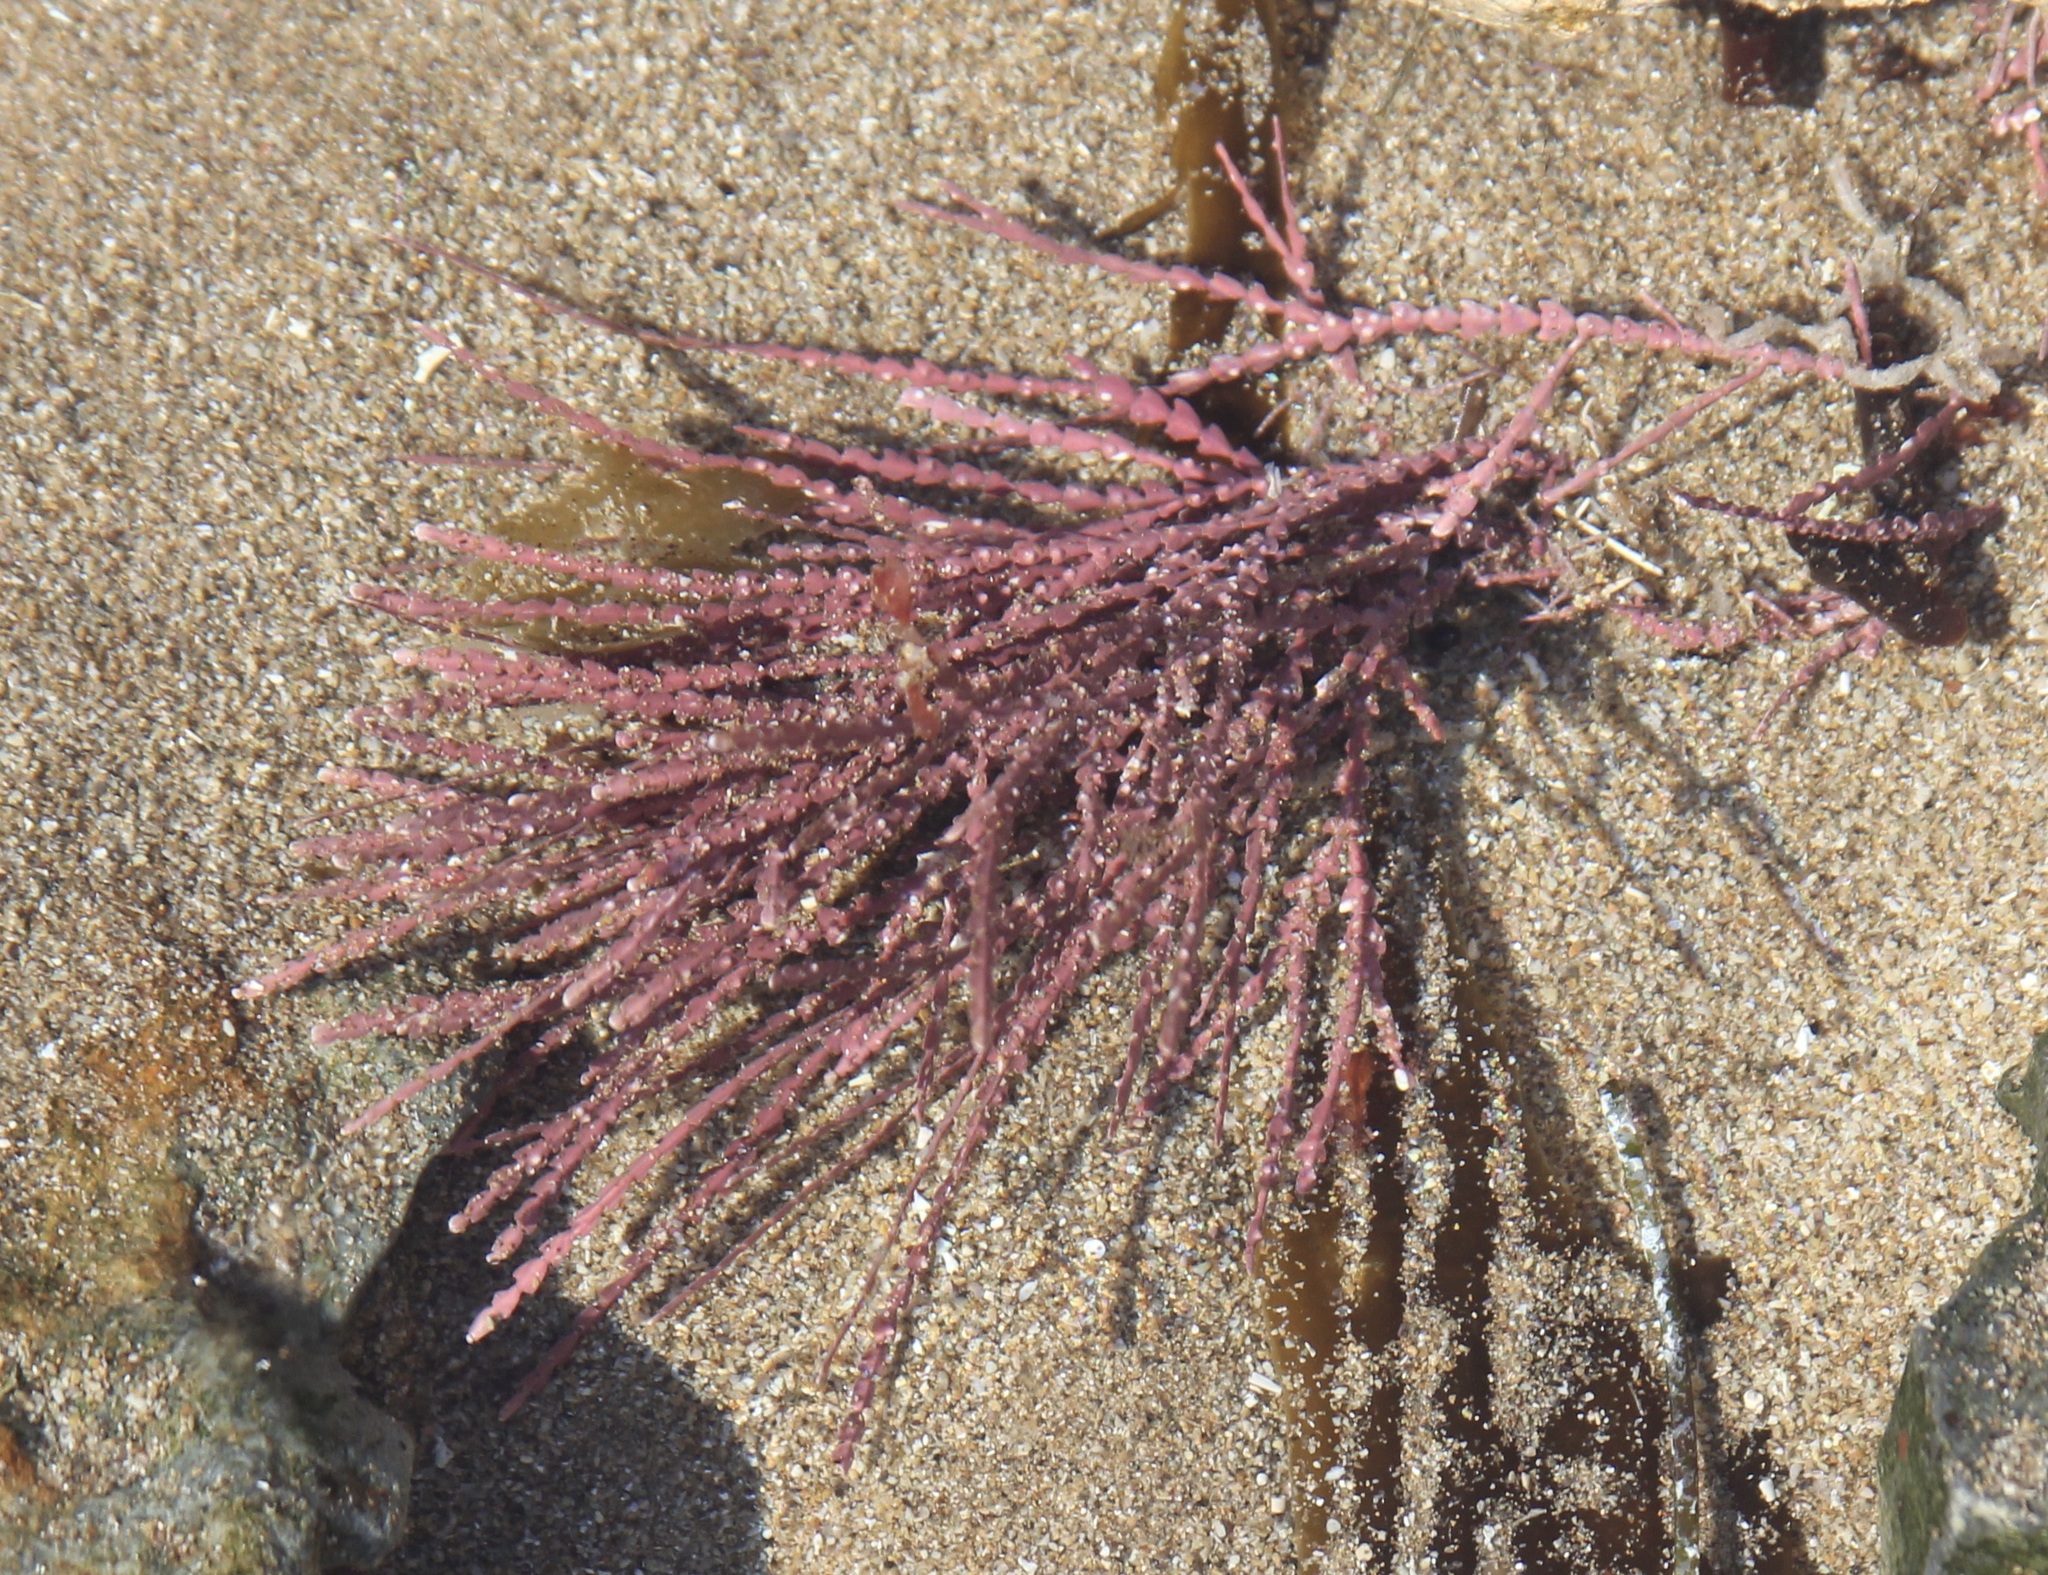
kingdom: Plantae
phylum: Rhodophyta
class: Florideophyceae
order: Corallinales
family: Corallinaceae
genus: Corallina
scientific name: Corallina officinalis
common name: Coral weed
